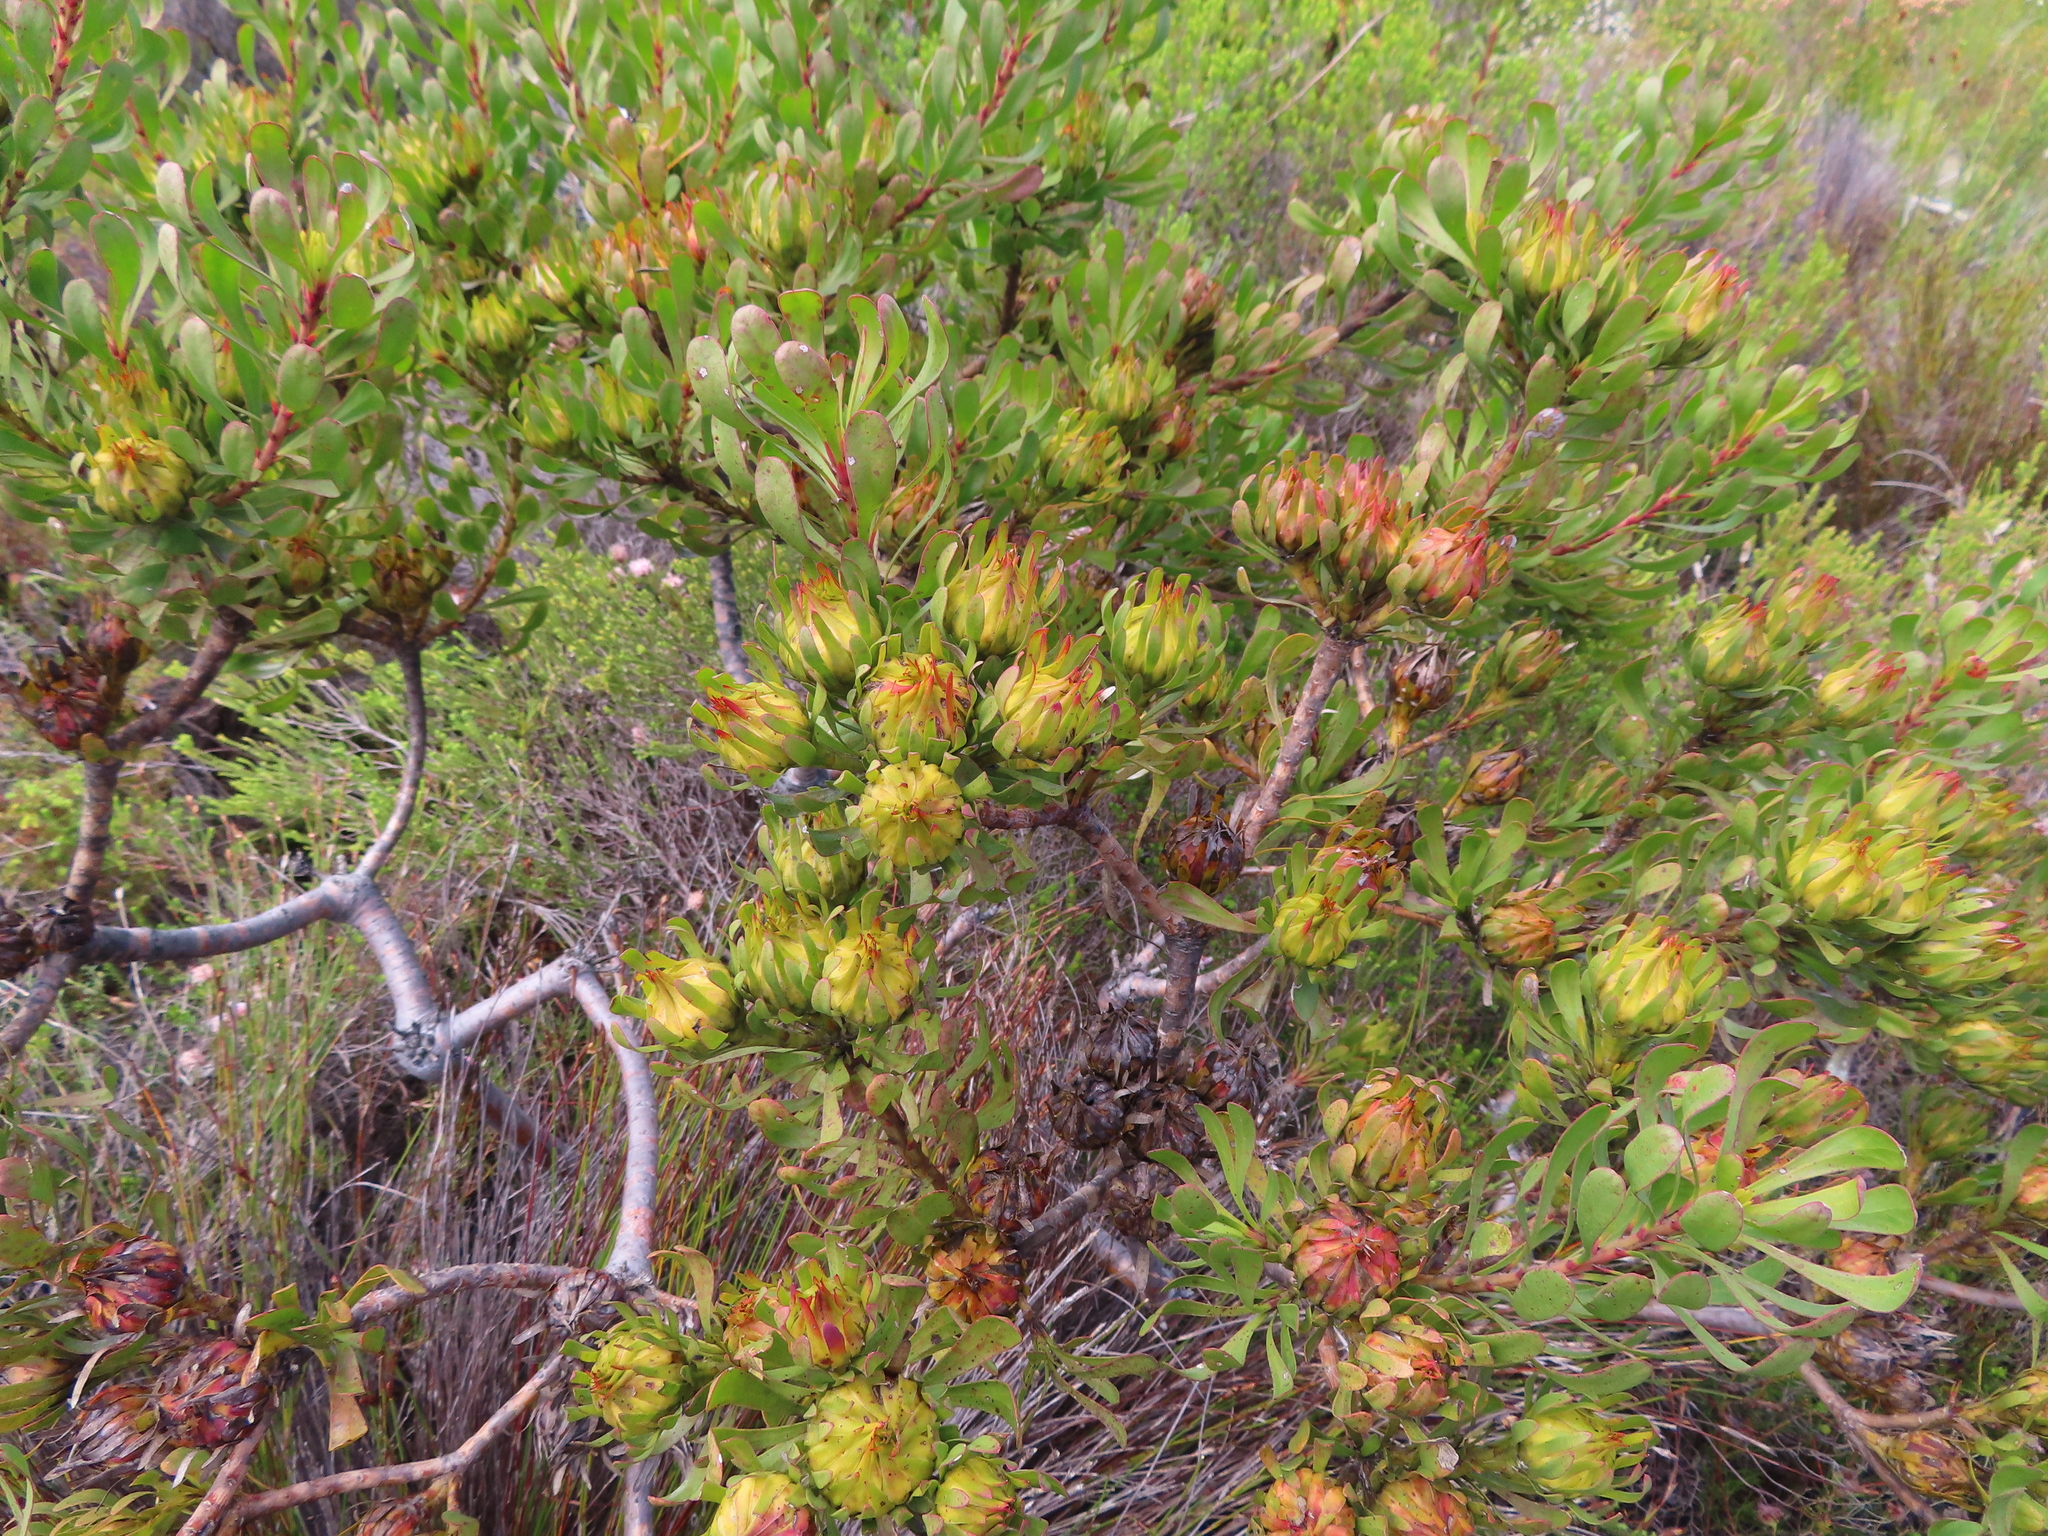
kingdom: Plantae
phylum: Tracheophyta
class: Magnoliopsida
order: Proteales
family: Proteaceae
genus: Aulax
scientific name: Aulax umbellata
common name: Broad-leaf featherbush
